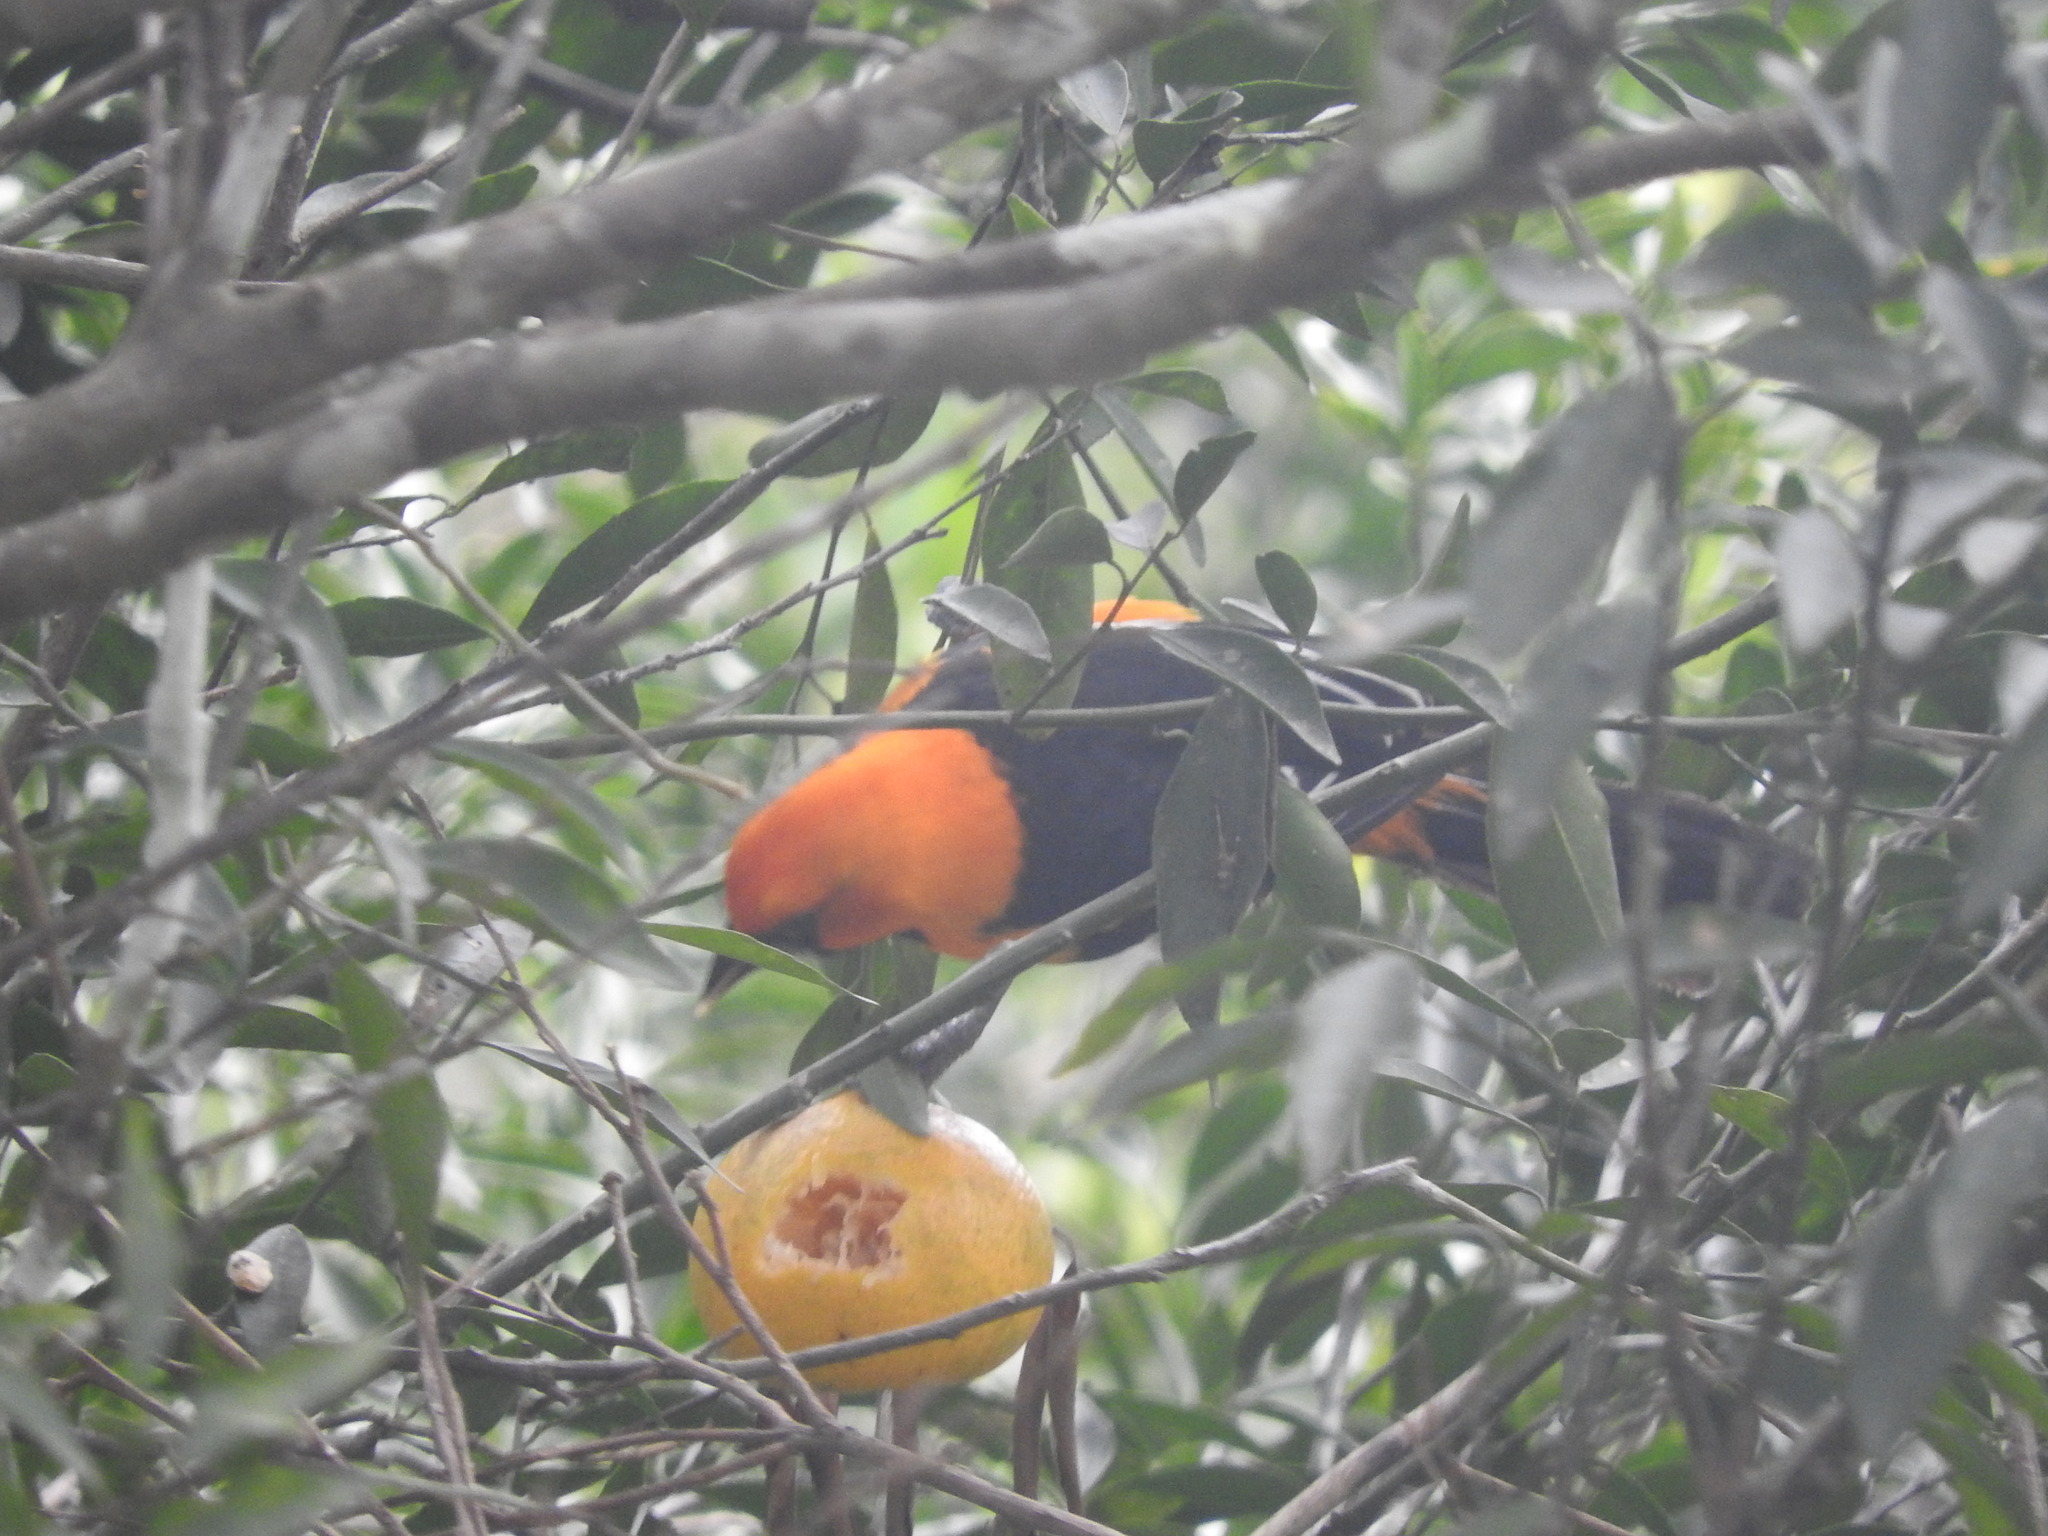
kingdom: Animalia
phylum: Chordata
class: Aves
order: Passeriformes
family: Icteridae
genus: Icterus
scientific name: Icterus gularis
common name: Altamira oriole
